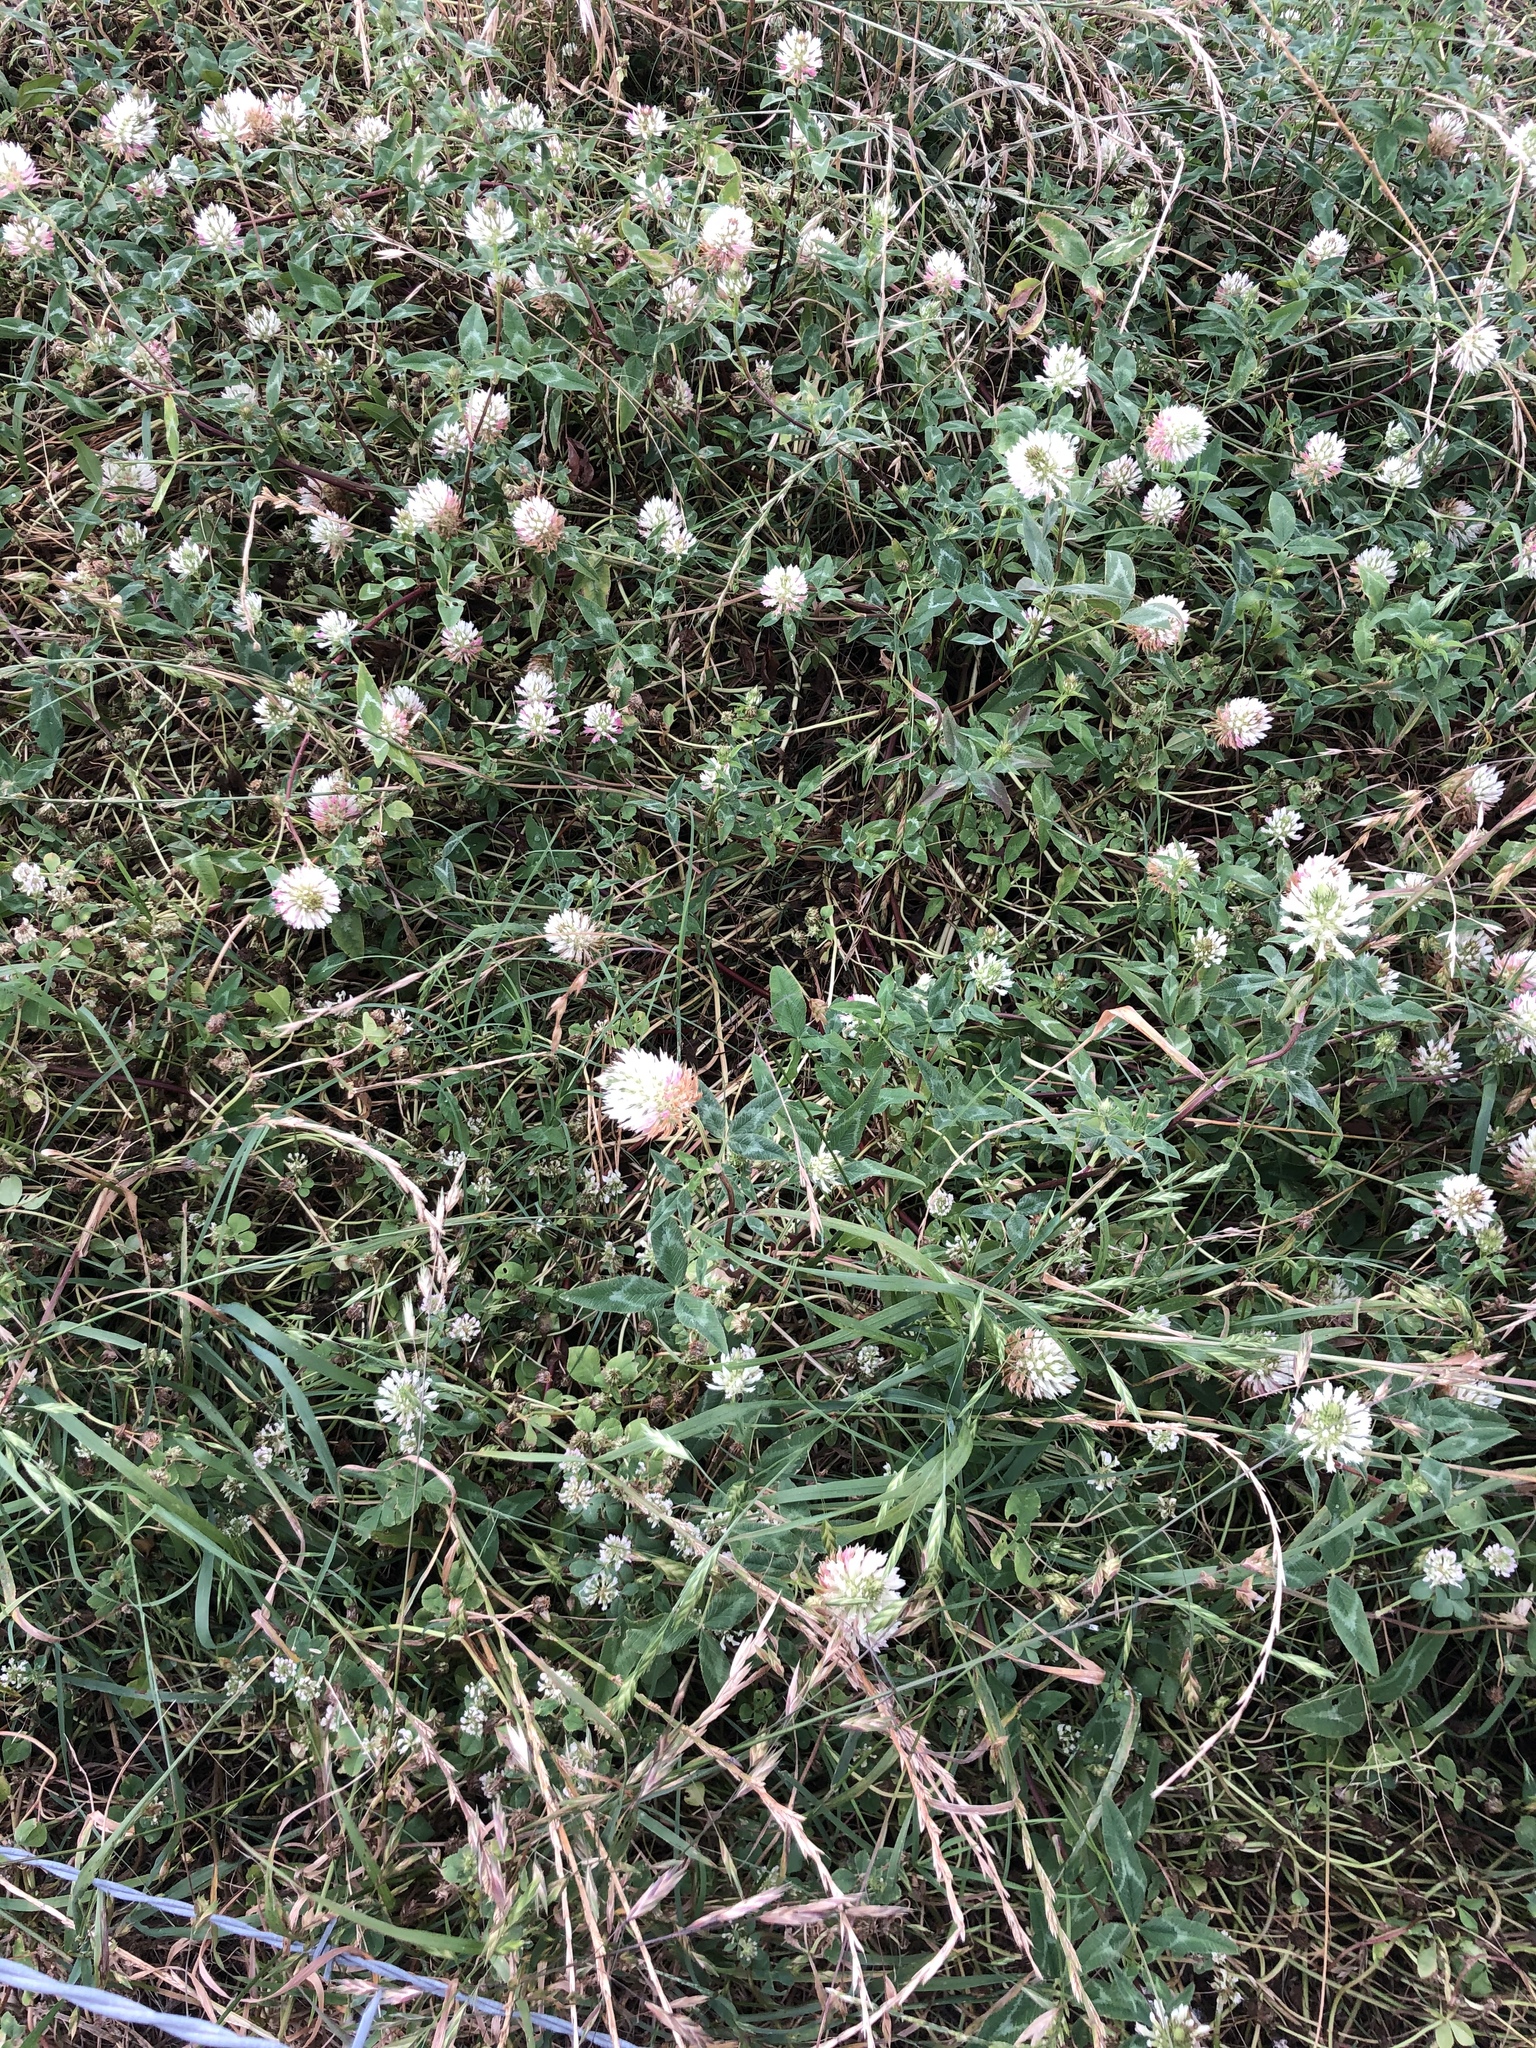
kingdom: Plantae
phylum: Tracheophyta
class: Magnoliopsida
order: Fabales
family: Fabaceae
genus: Trifolium
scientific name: Trifolium vesiculosum
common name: Arrowleaf clover
